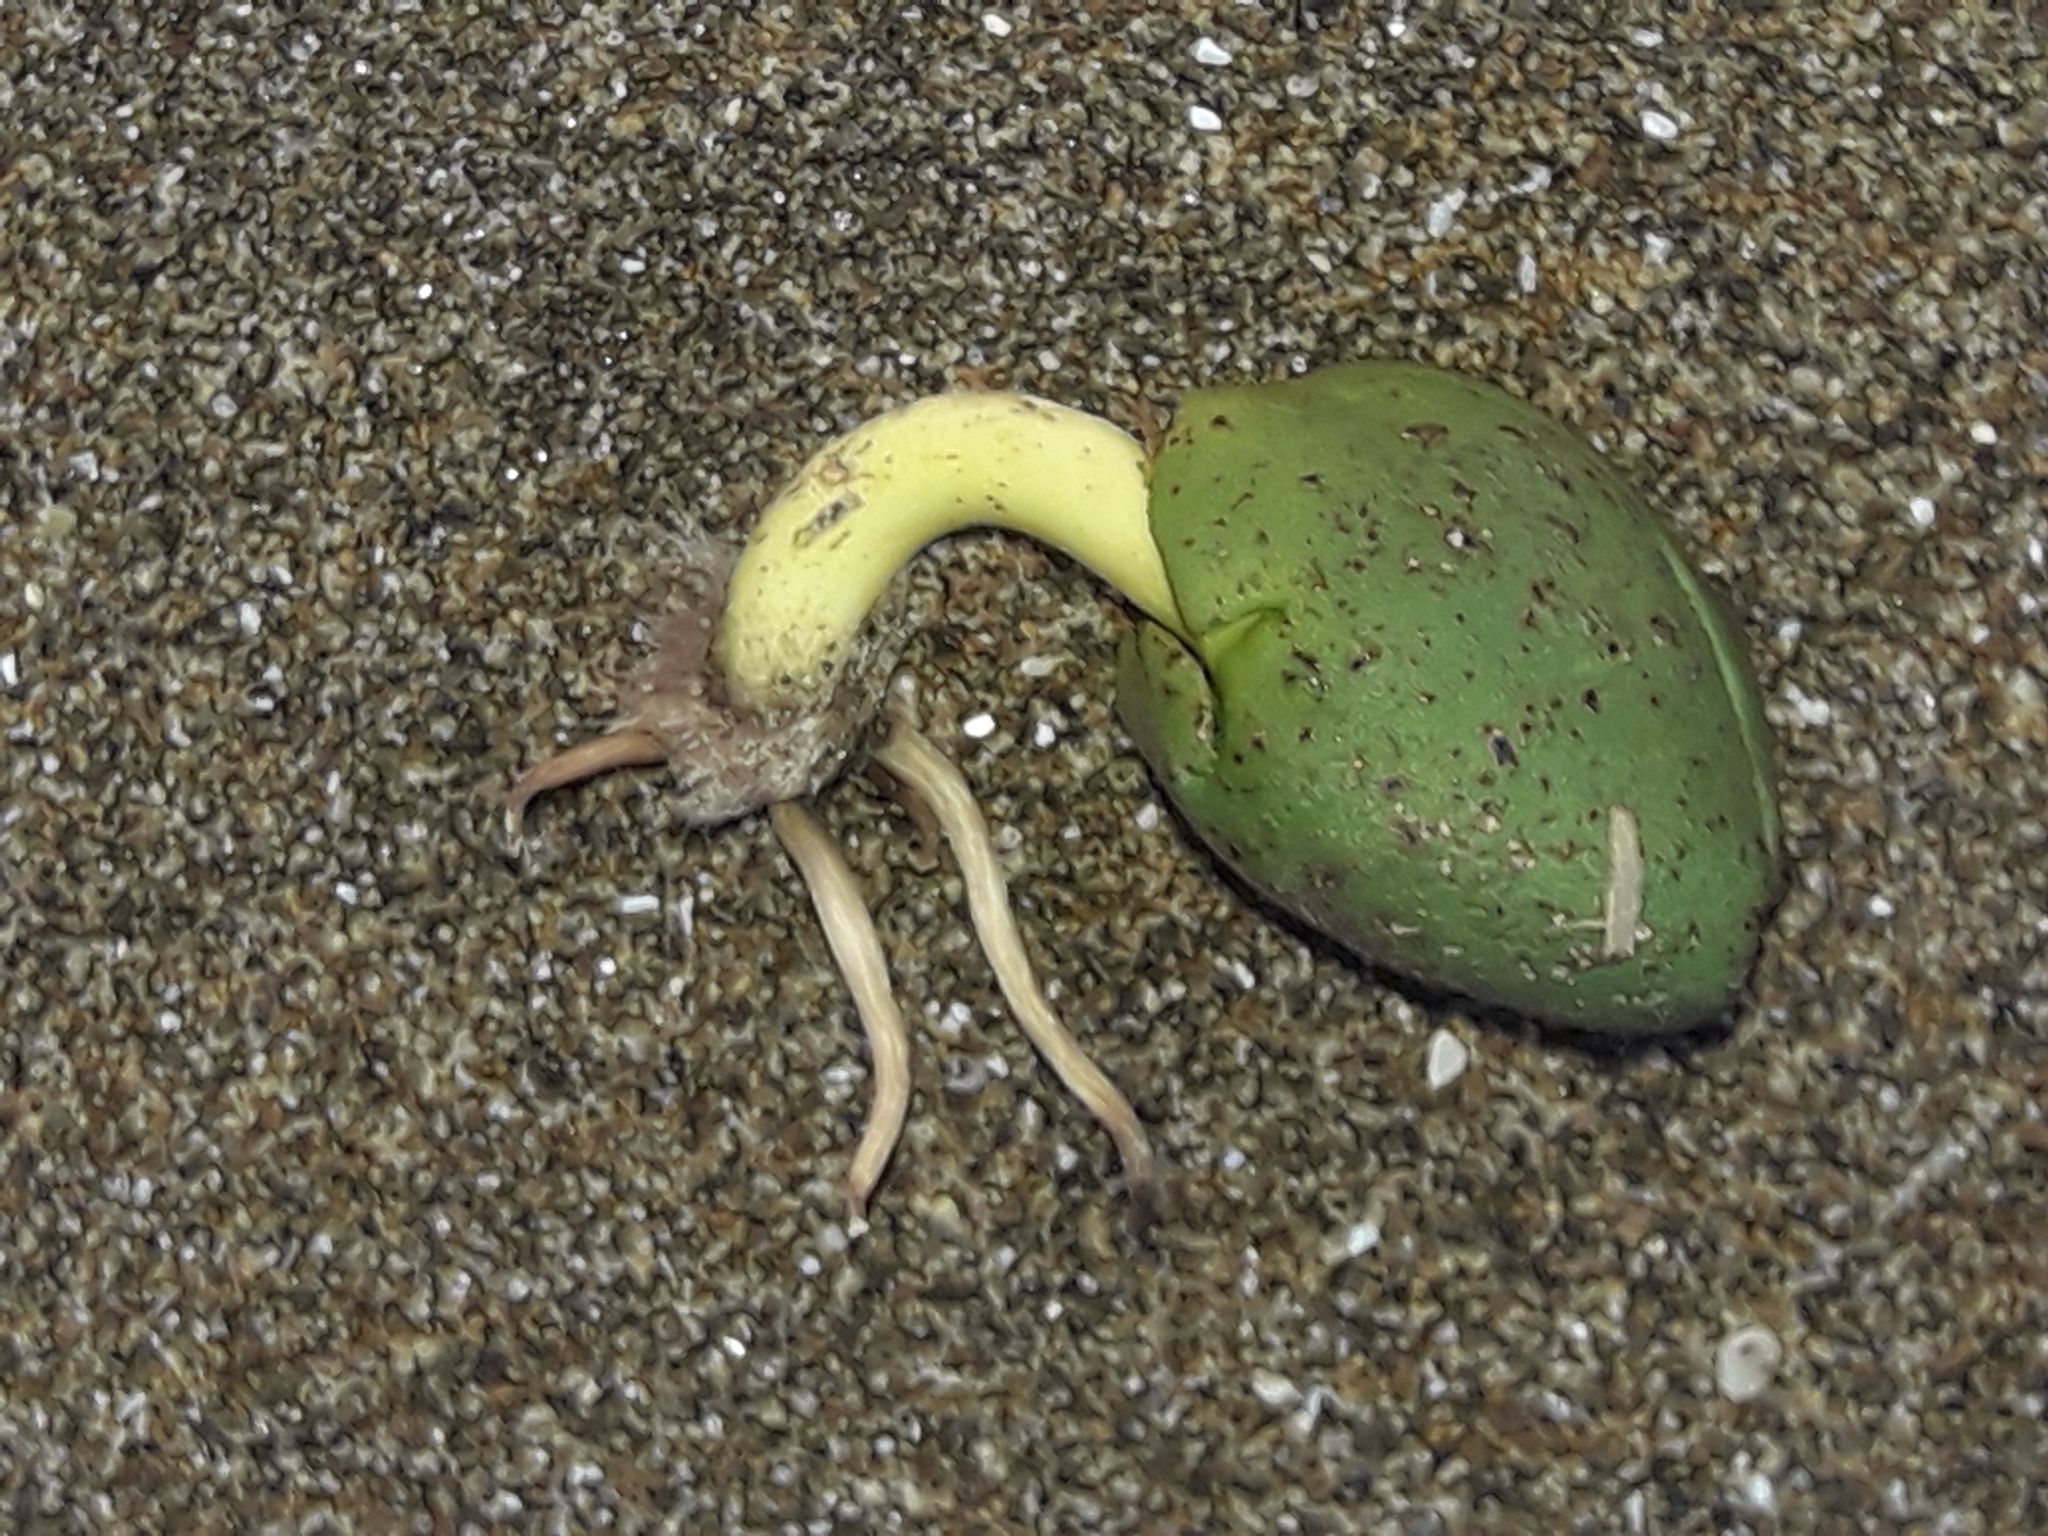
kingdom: Plantae
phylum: Tracheophyta
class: Magnoliopsida
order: Lamiales
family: Acanthaceae
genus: Avicennia
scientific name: Avicennia marina
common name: Gray mangrove
